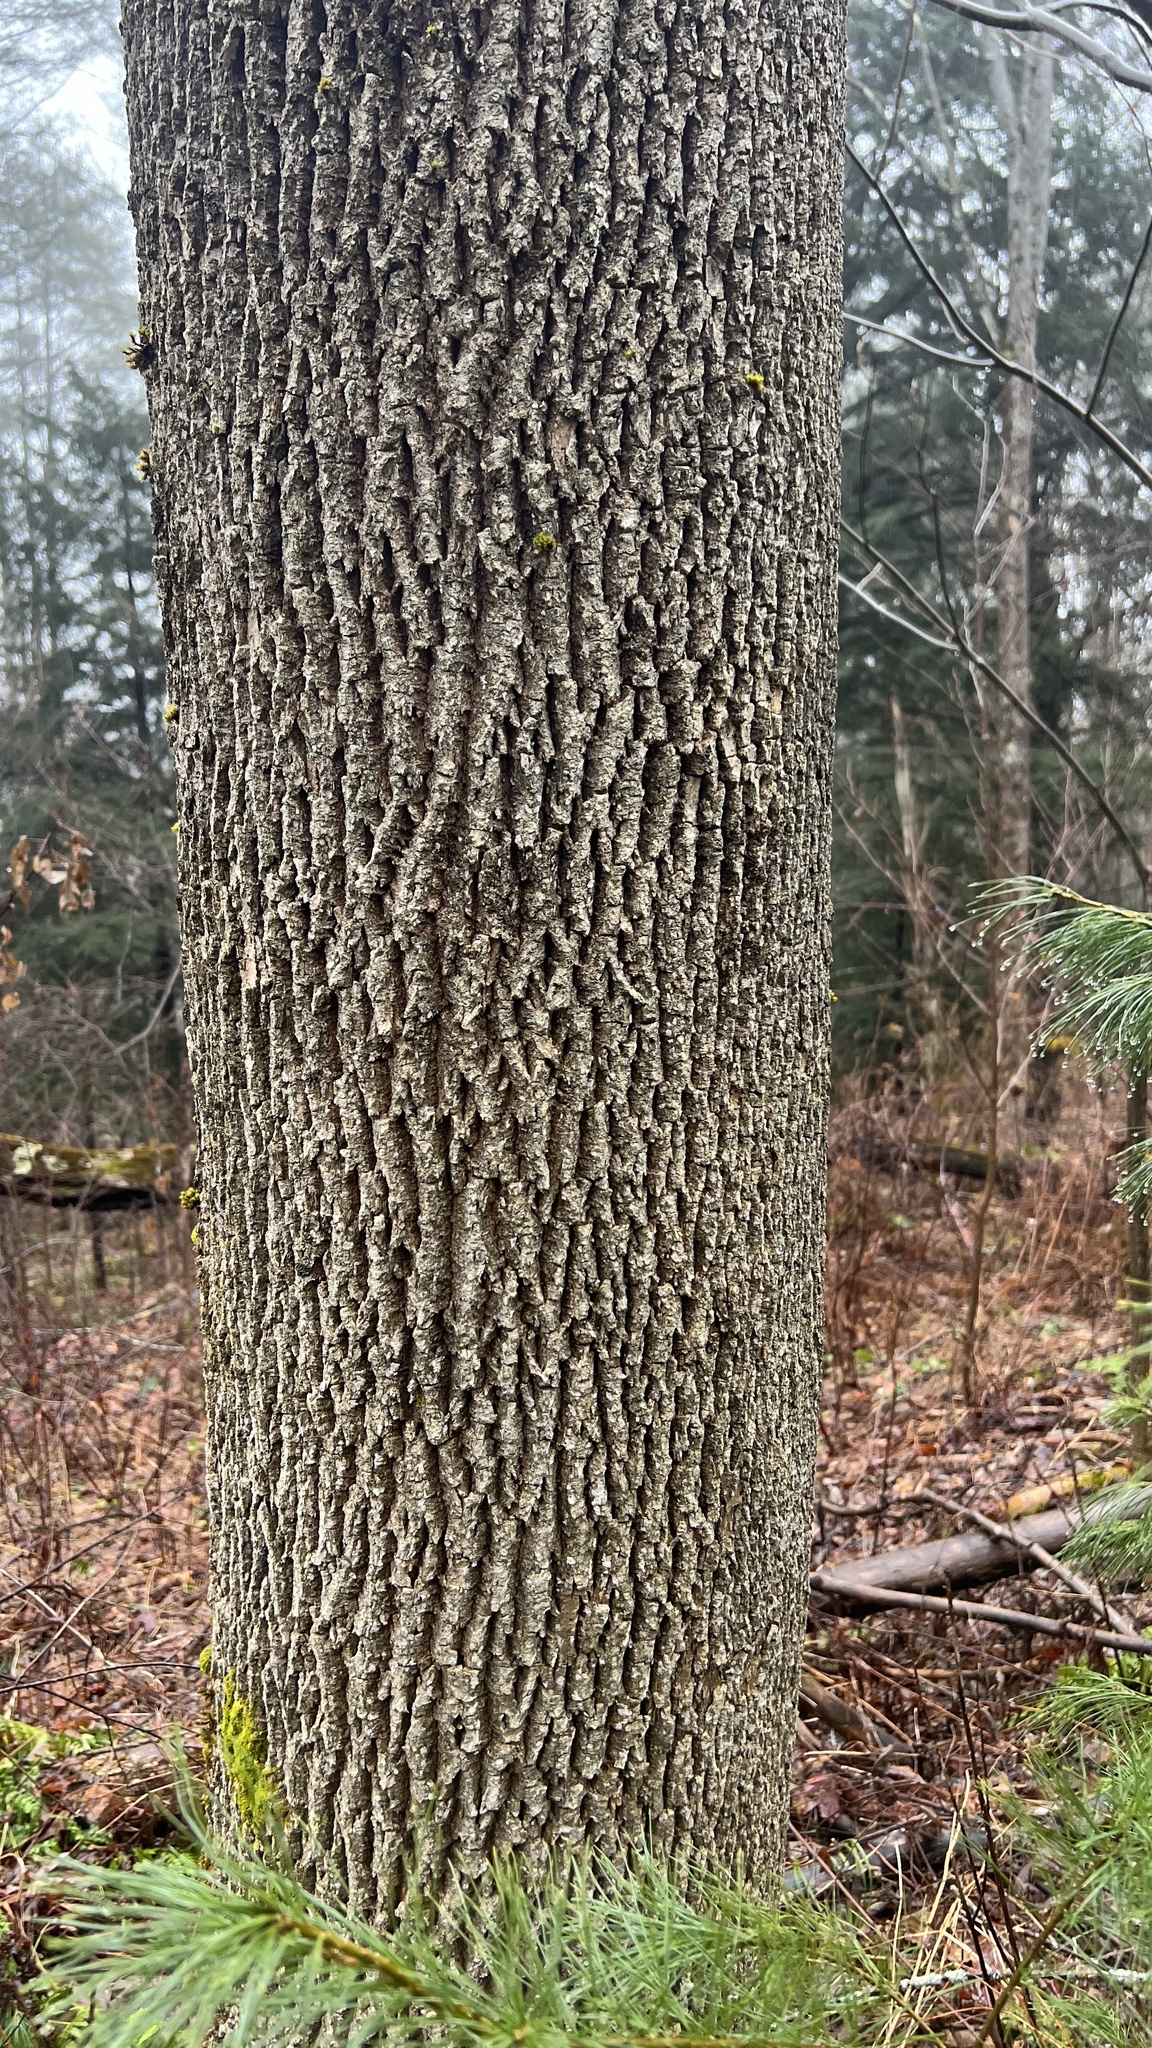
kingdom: Plantae
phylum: Tracheophyta
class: Magnoliopsida
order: Lamiales
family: Oleaceae
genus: Fraxinus
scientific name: Fraxinus americana
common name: White ash
